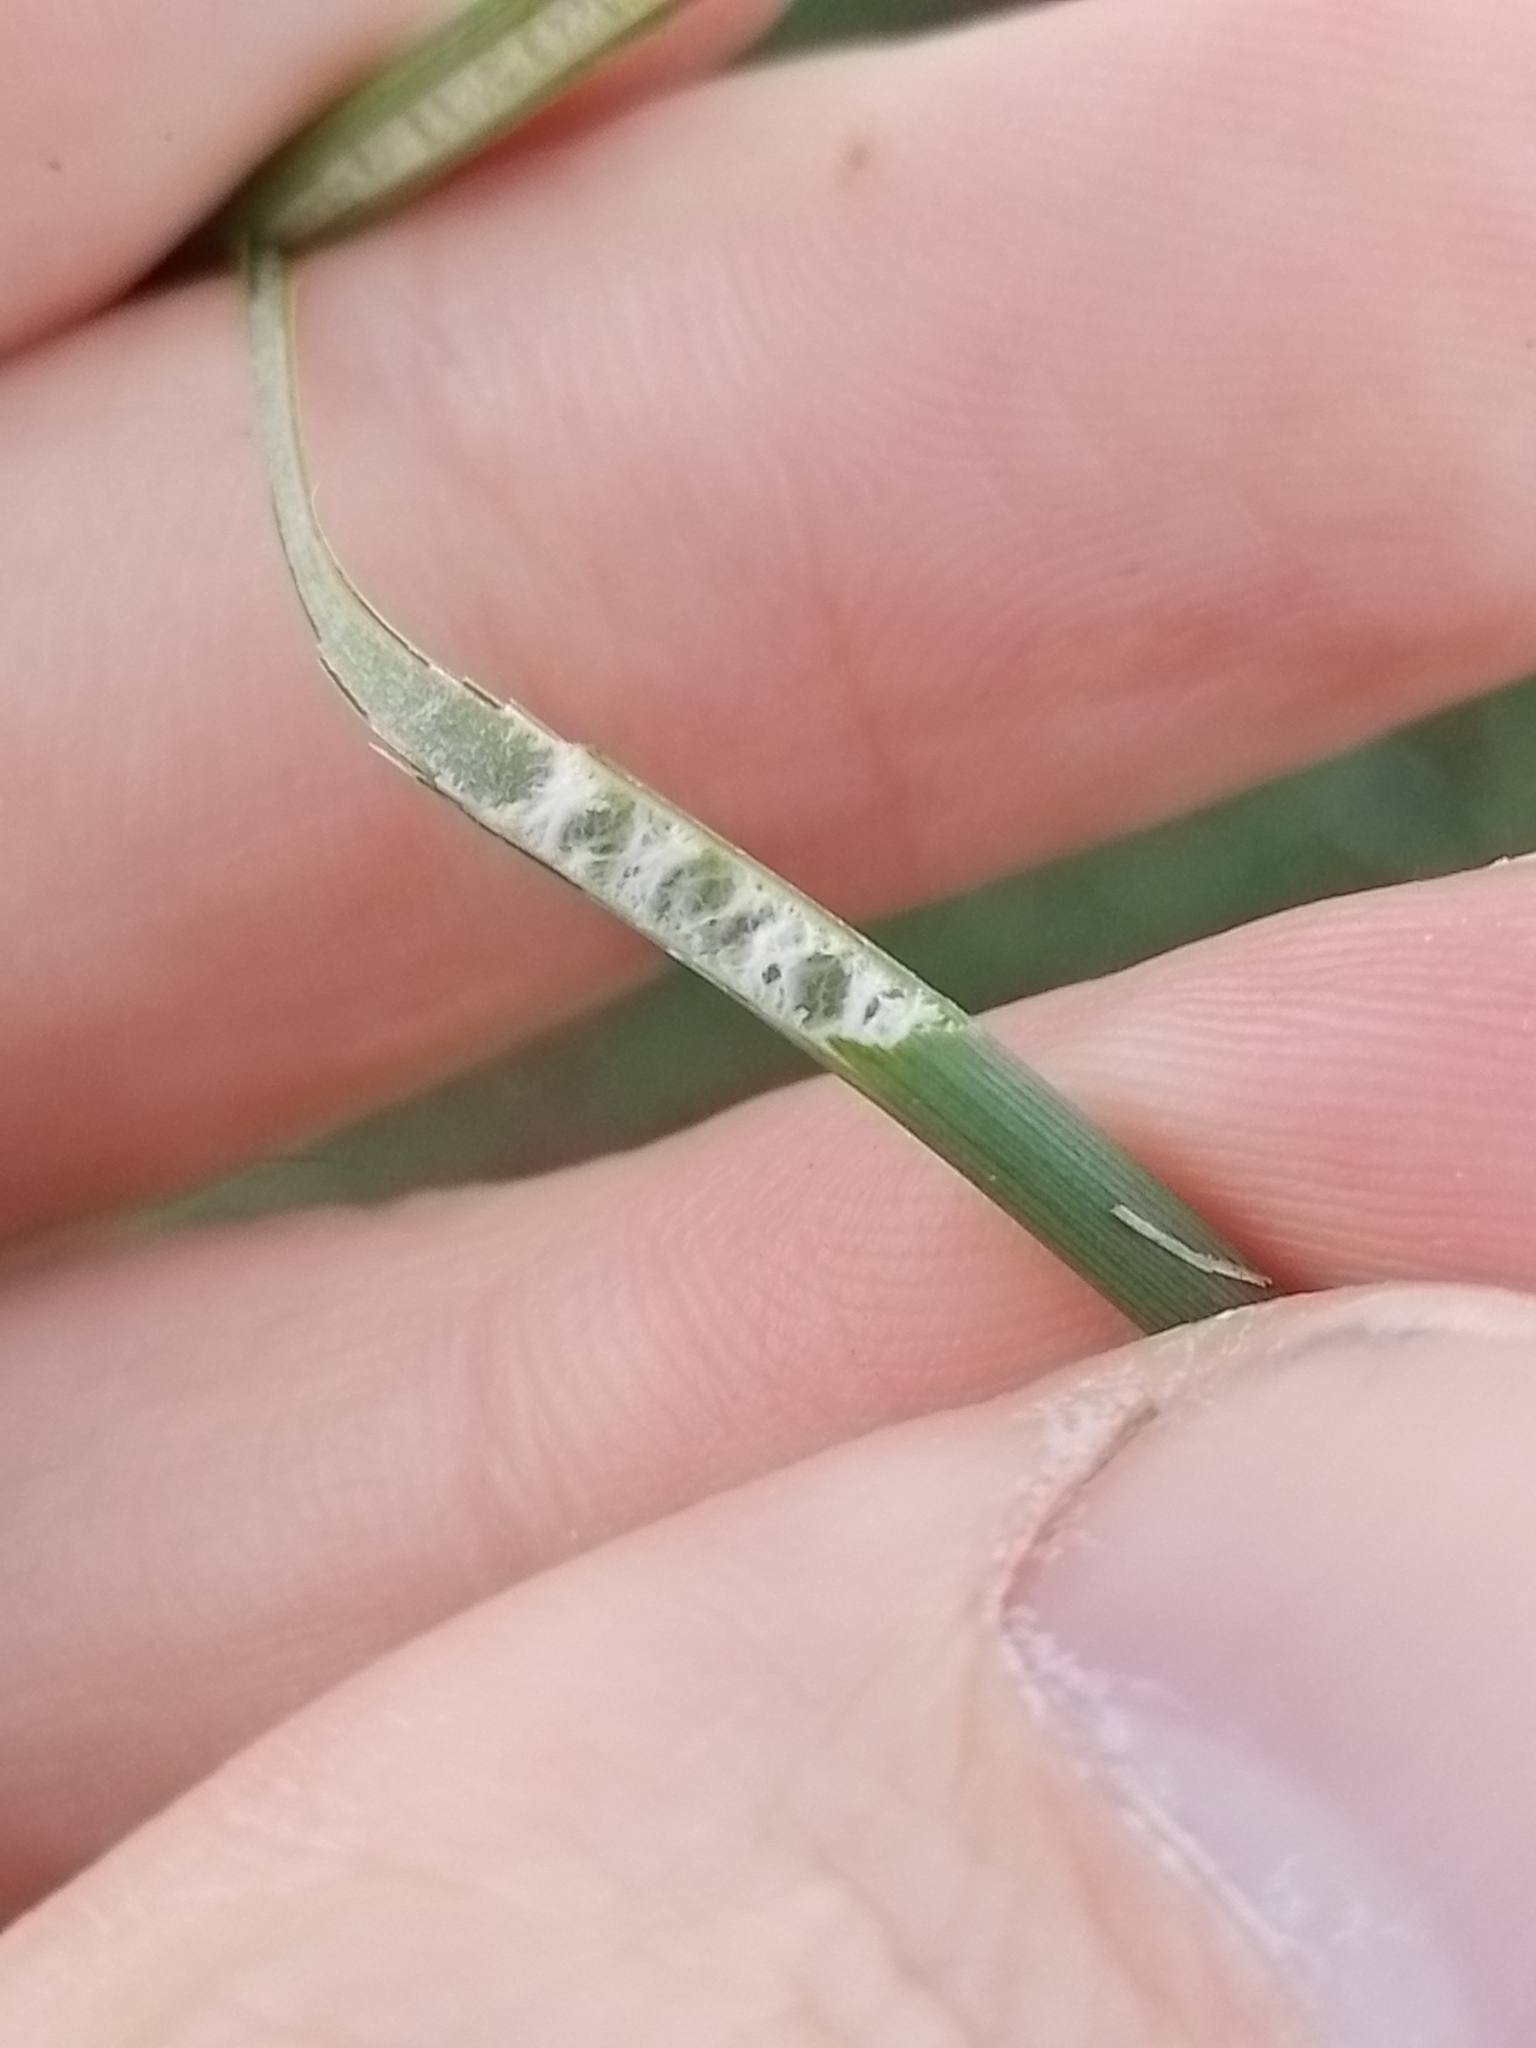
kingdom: Plantae
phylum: Tracheophyta
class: Liliopsida
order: Poales
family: Juncaceae
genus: Juncus
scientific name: Juncus sarophorus
